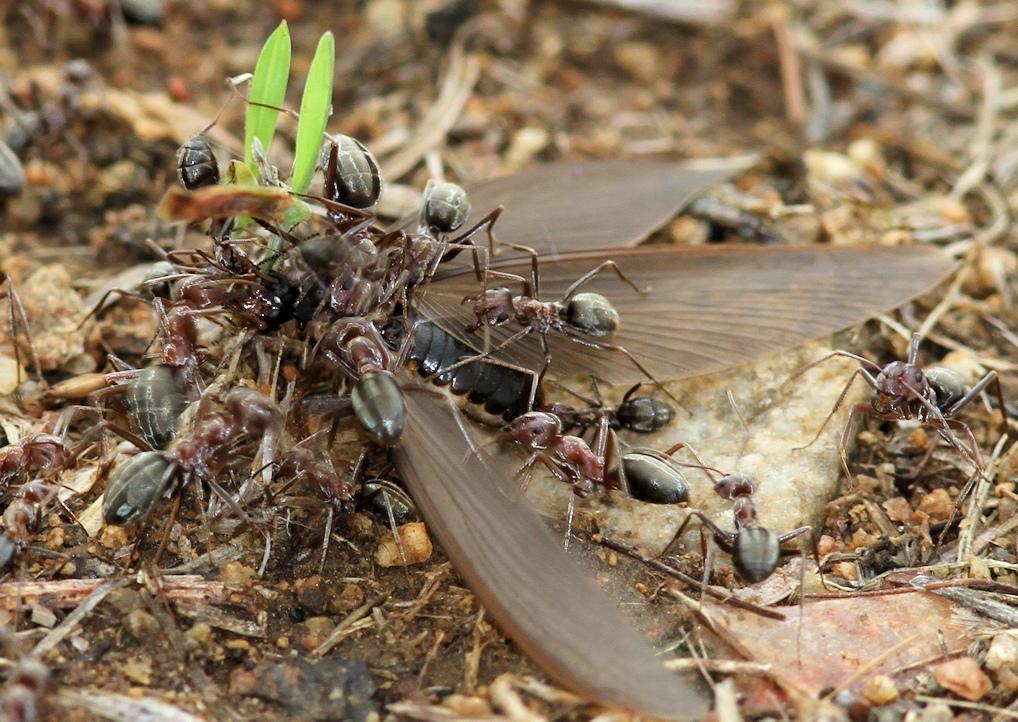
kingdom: Animalia
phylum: Arthropoda
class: Insecta
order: Hymenoptera
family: Formicidae
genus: Anoplolepis
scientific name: Anoplolepis custodiens
